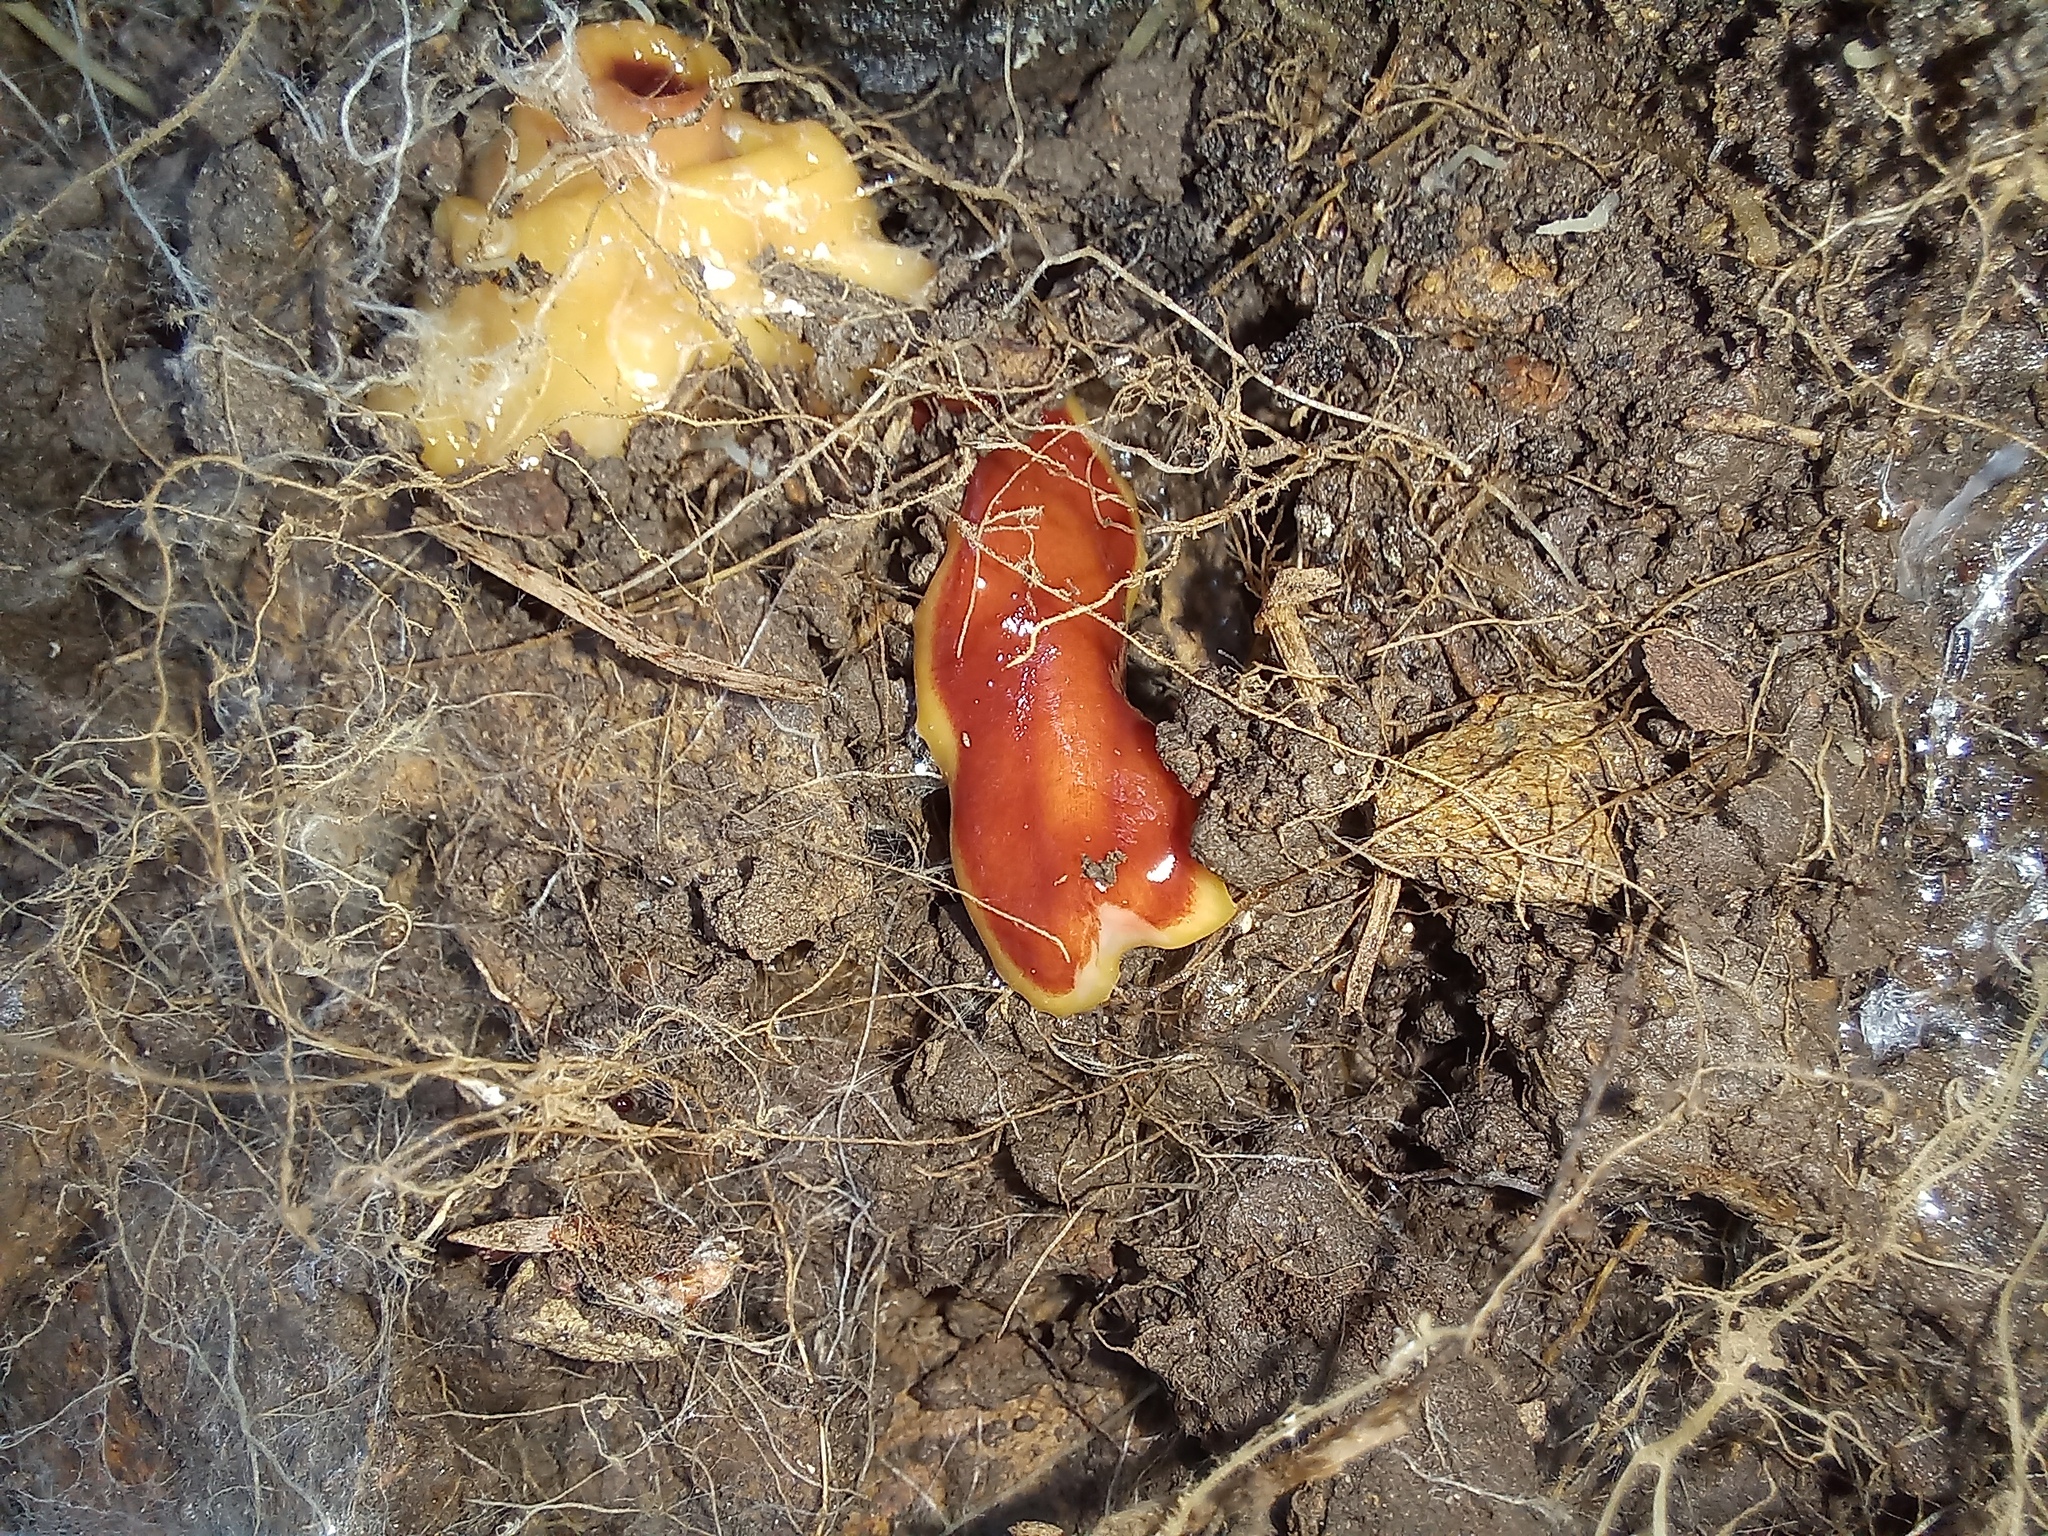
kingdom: Animalia
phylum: Platyhelminthes
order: Tricladida
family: Geoplanidae
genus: Arthurdendyus
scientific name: Arthurdendyus testaceus
